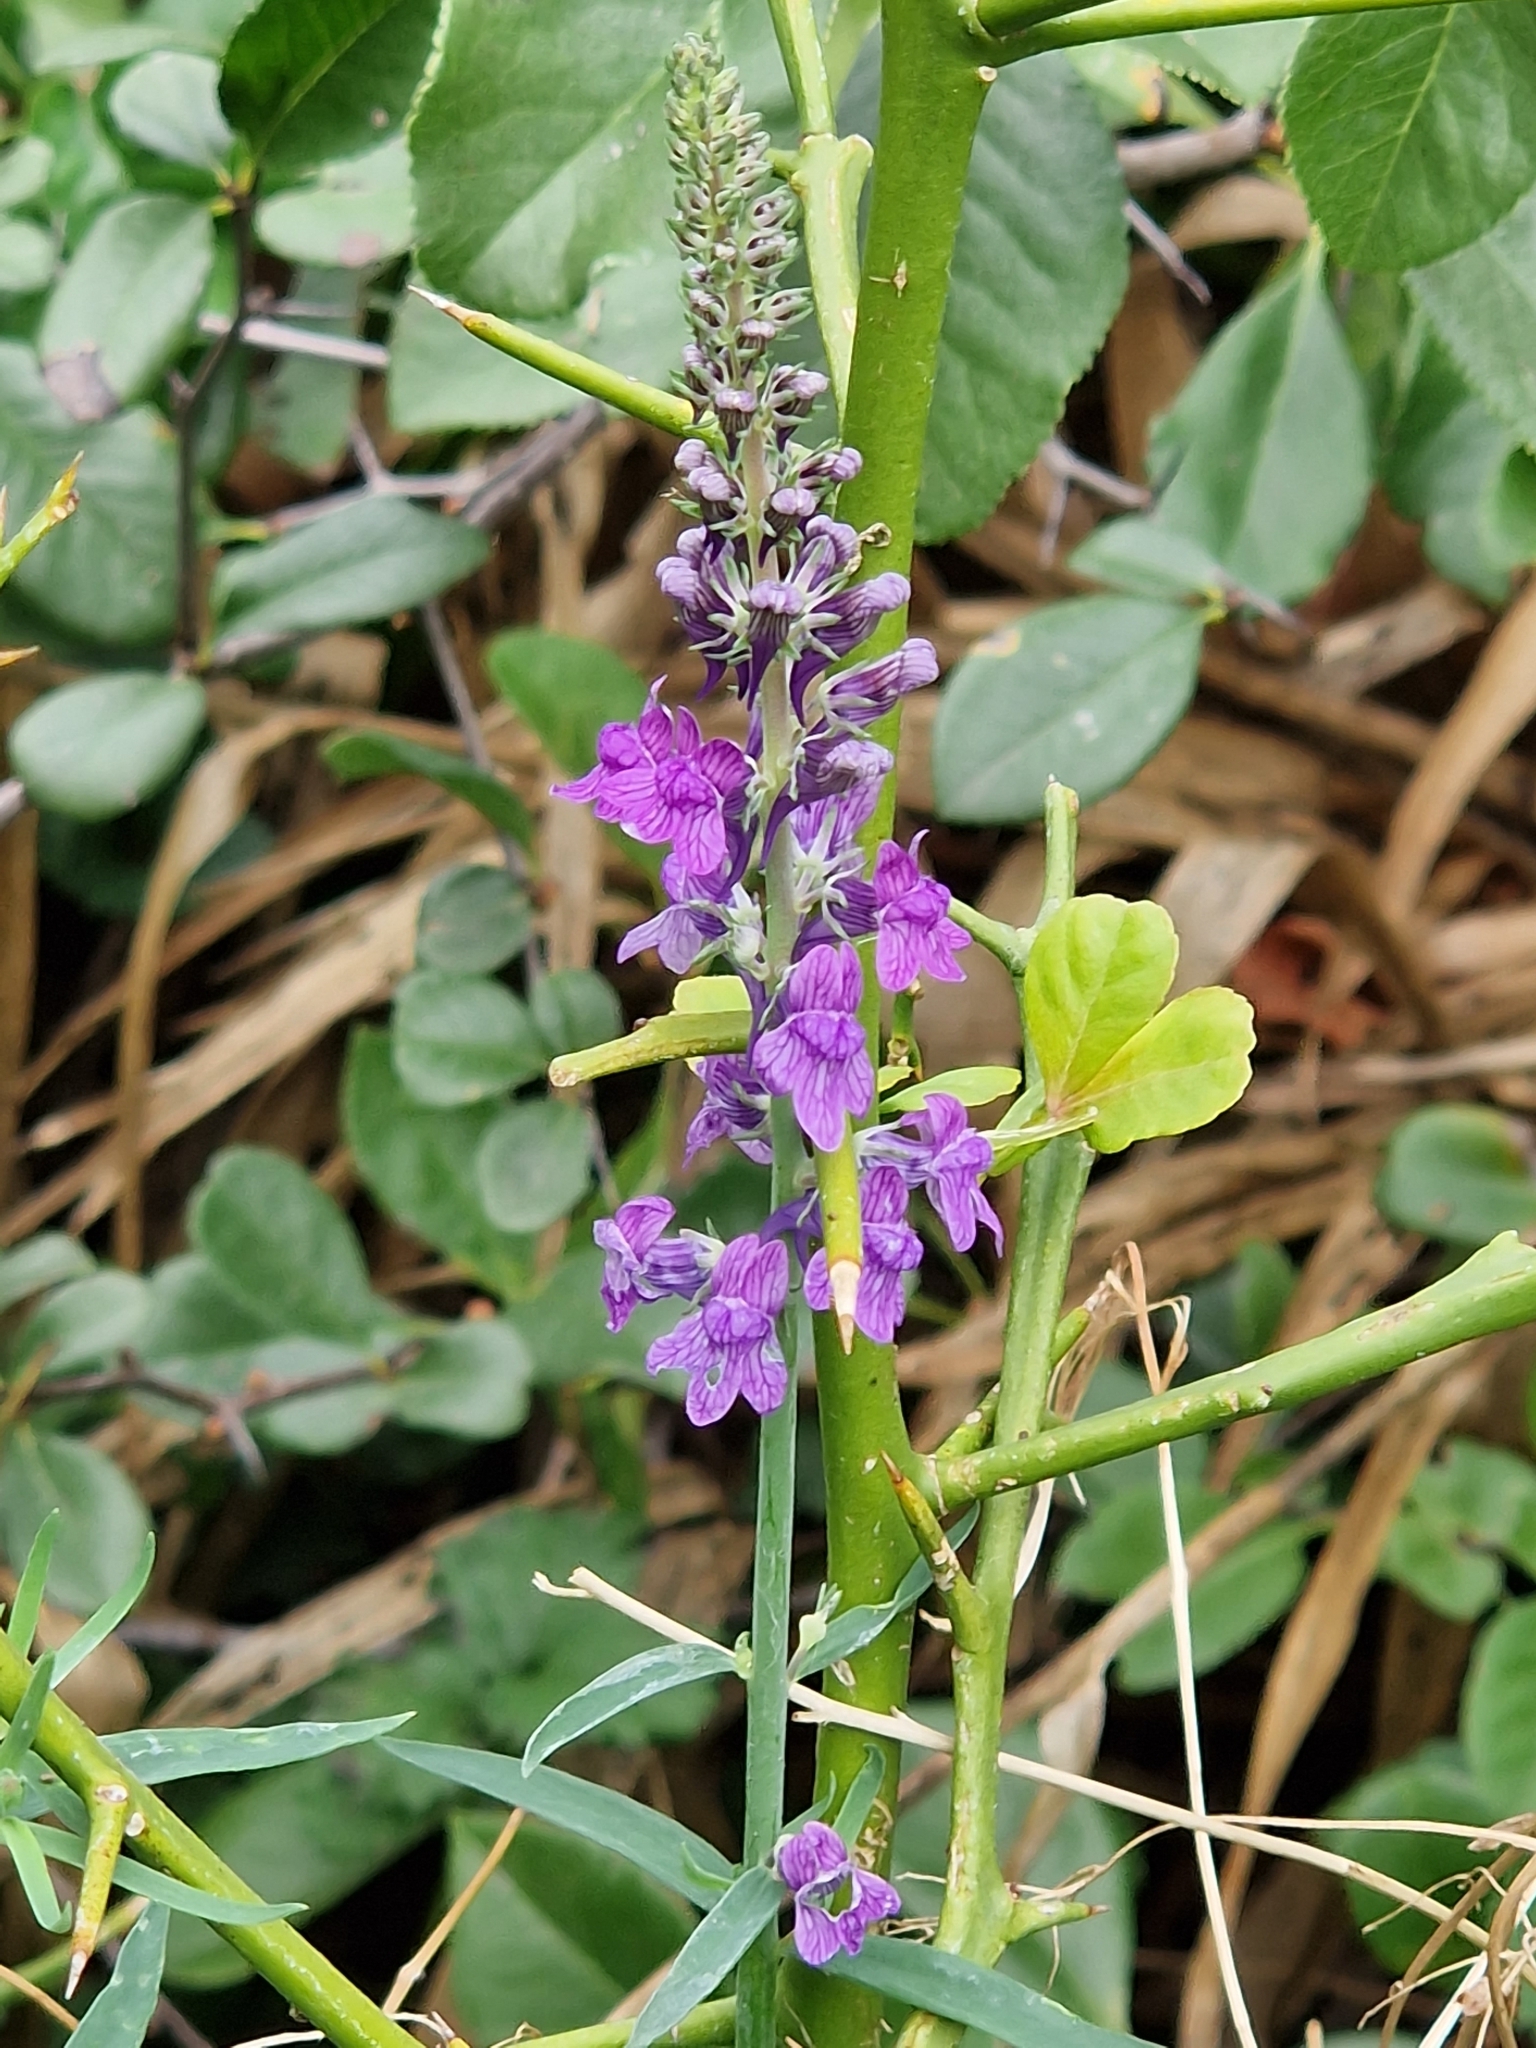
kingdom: Plantae
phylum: Tracheophyta
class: Magnoliopsida
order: Lamiales
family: Plantaginaceae
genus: Linaria
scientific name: Linaria purpurea
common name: Purple toadflax
